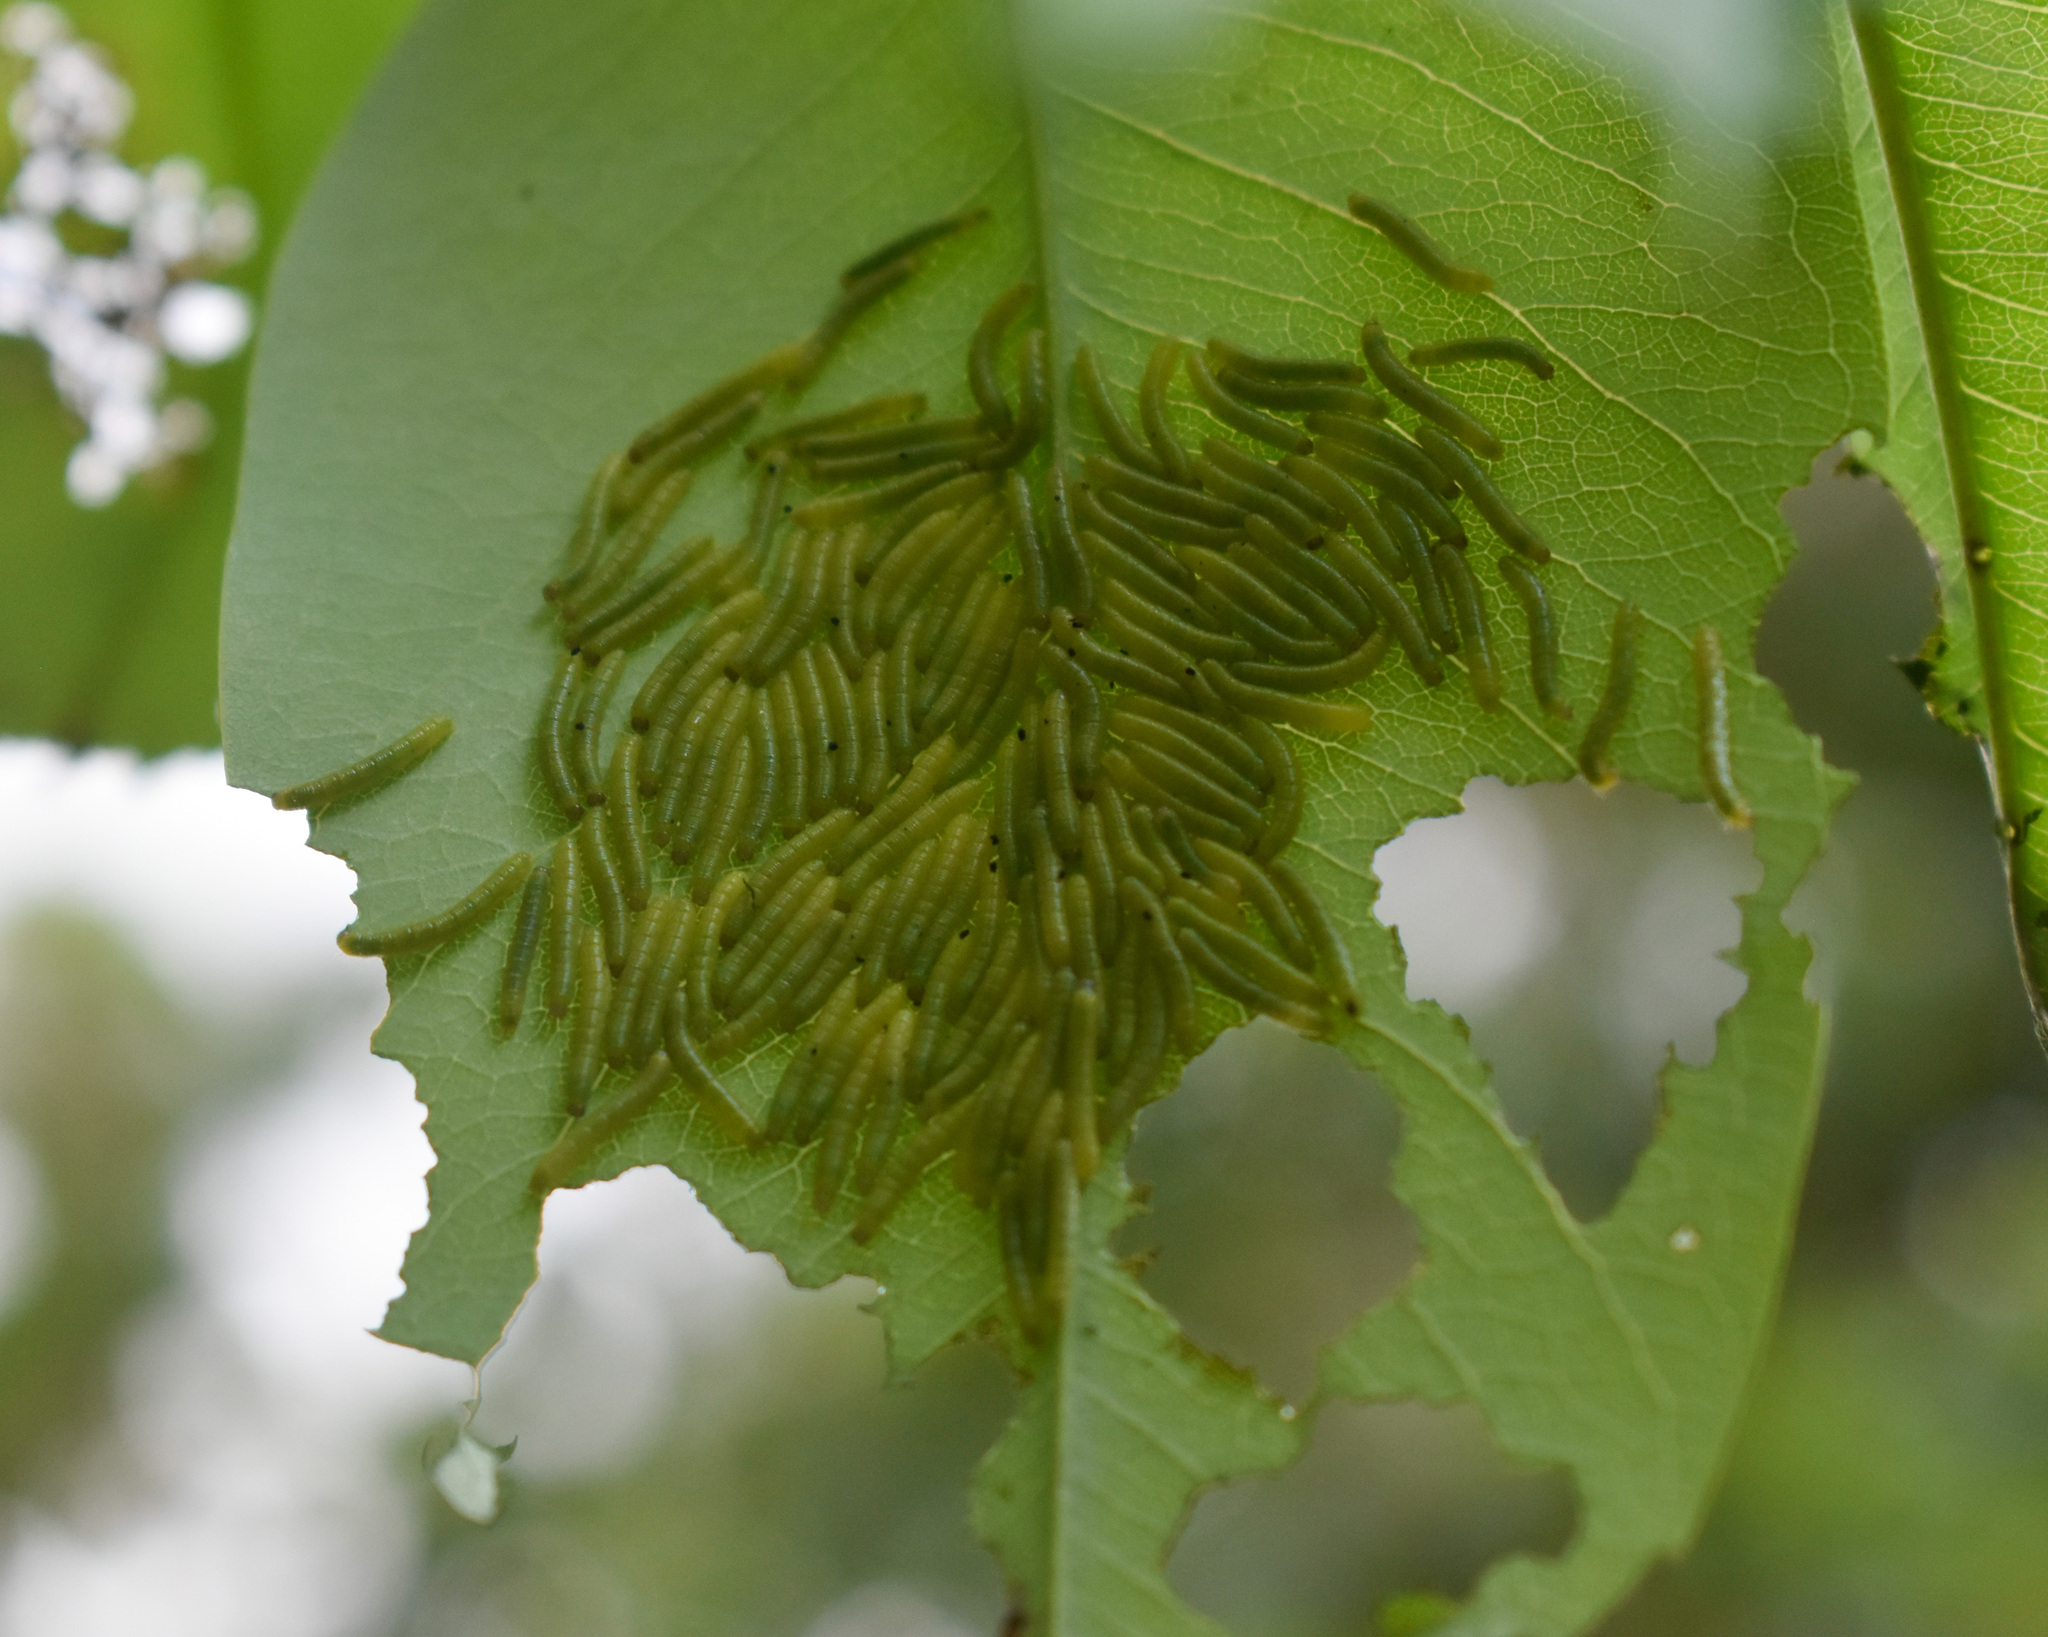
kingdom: Animalia
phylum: Arthropoda
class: Insecta
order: Lepidoptera
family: Pieridae
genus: Eurema
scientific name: Eurema blanda
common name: Three-spot grass yellow
